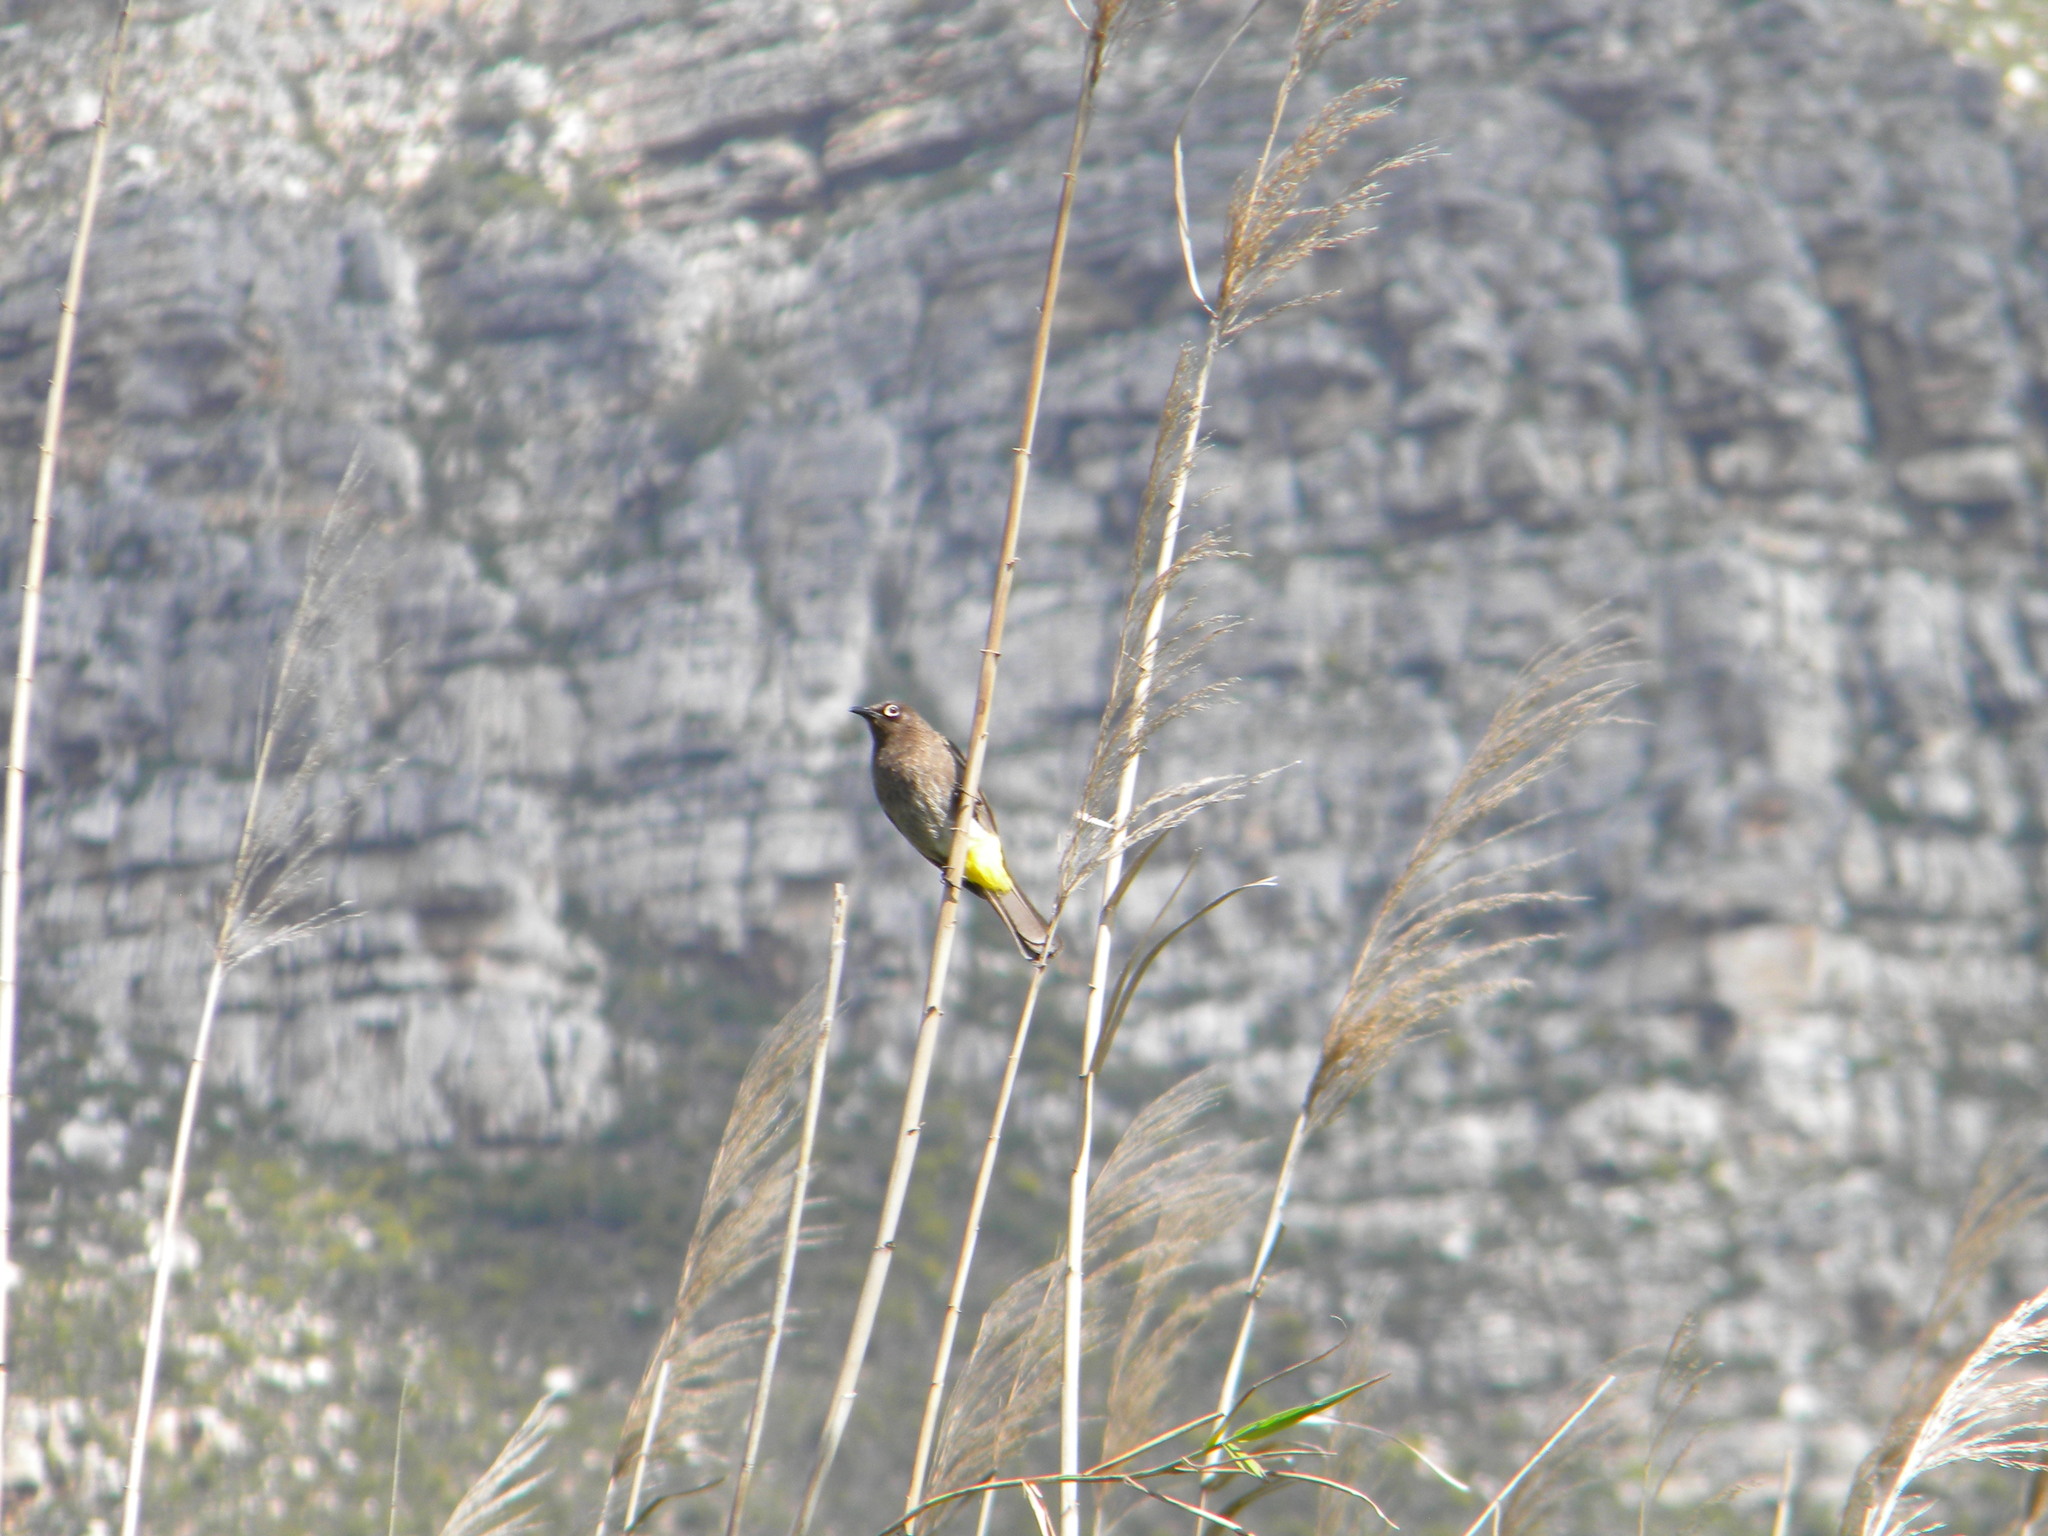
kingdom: Animalia
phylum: Chordata
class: Aves
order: Passeriformes
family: Pycnonotidae
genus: Pycnonotus
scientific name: Pycnonotus capensis
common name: Cape bulbul
